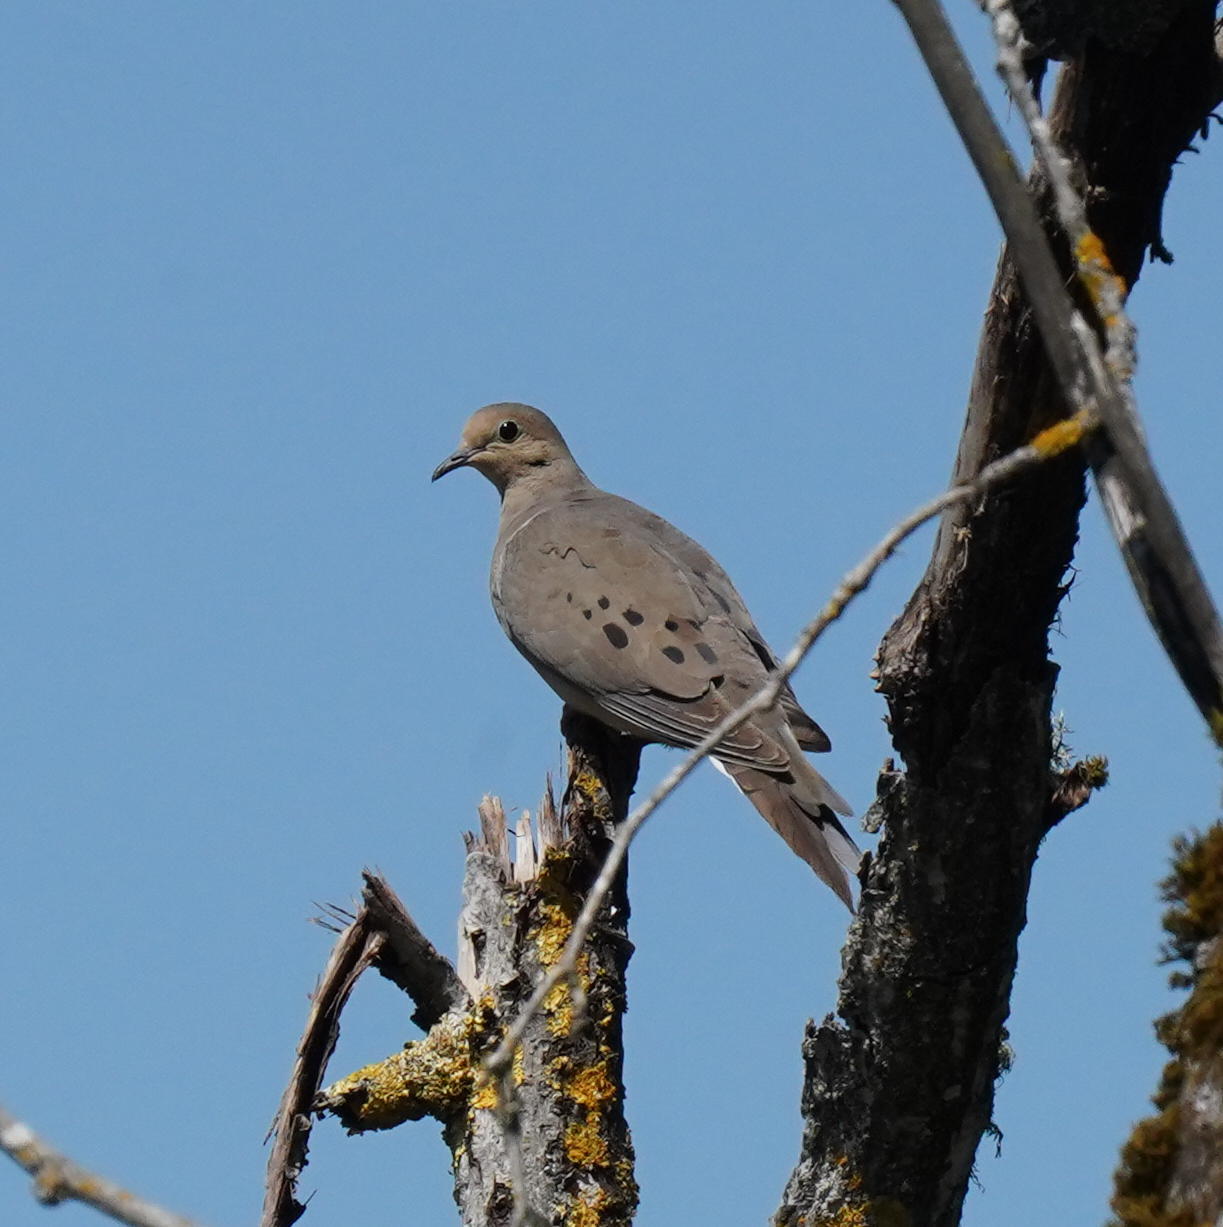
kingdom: Animalia
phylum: Chordata
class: Aves
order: Columbiformes
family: Columbidae
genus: Zenaida
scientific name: Zenaida macroura
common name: Mourning dove
